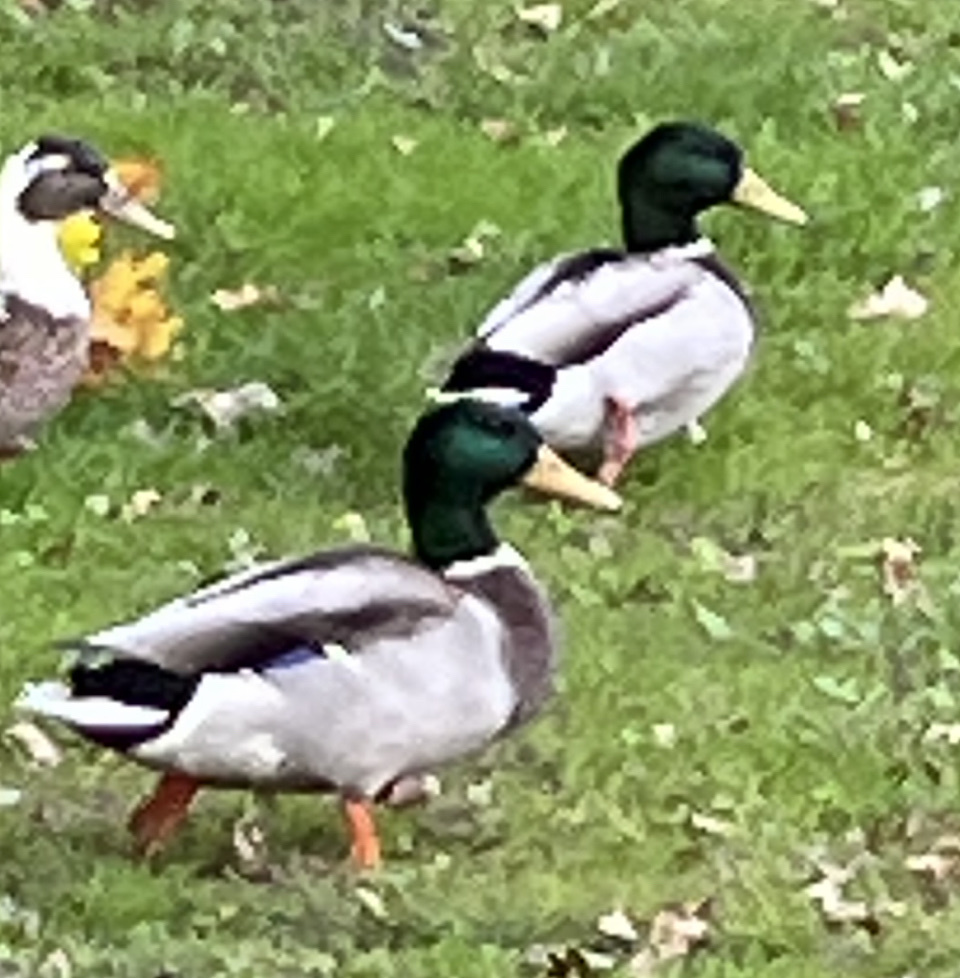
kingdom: Animalia
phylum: Chordata
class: Aves
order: Anseriformes
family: Anatidae
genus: Anas
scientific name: Anas platyrhynchos
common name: Mallard
